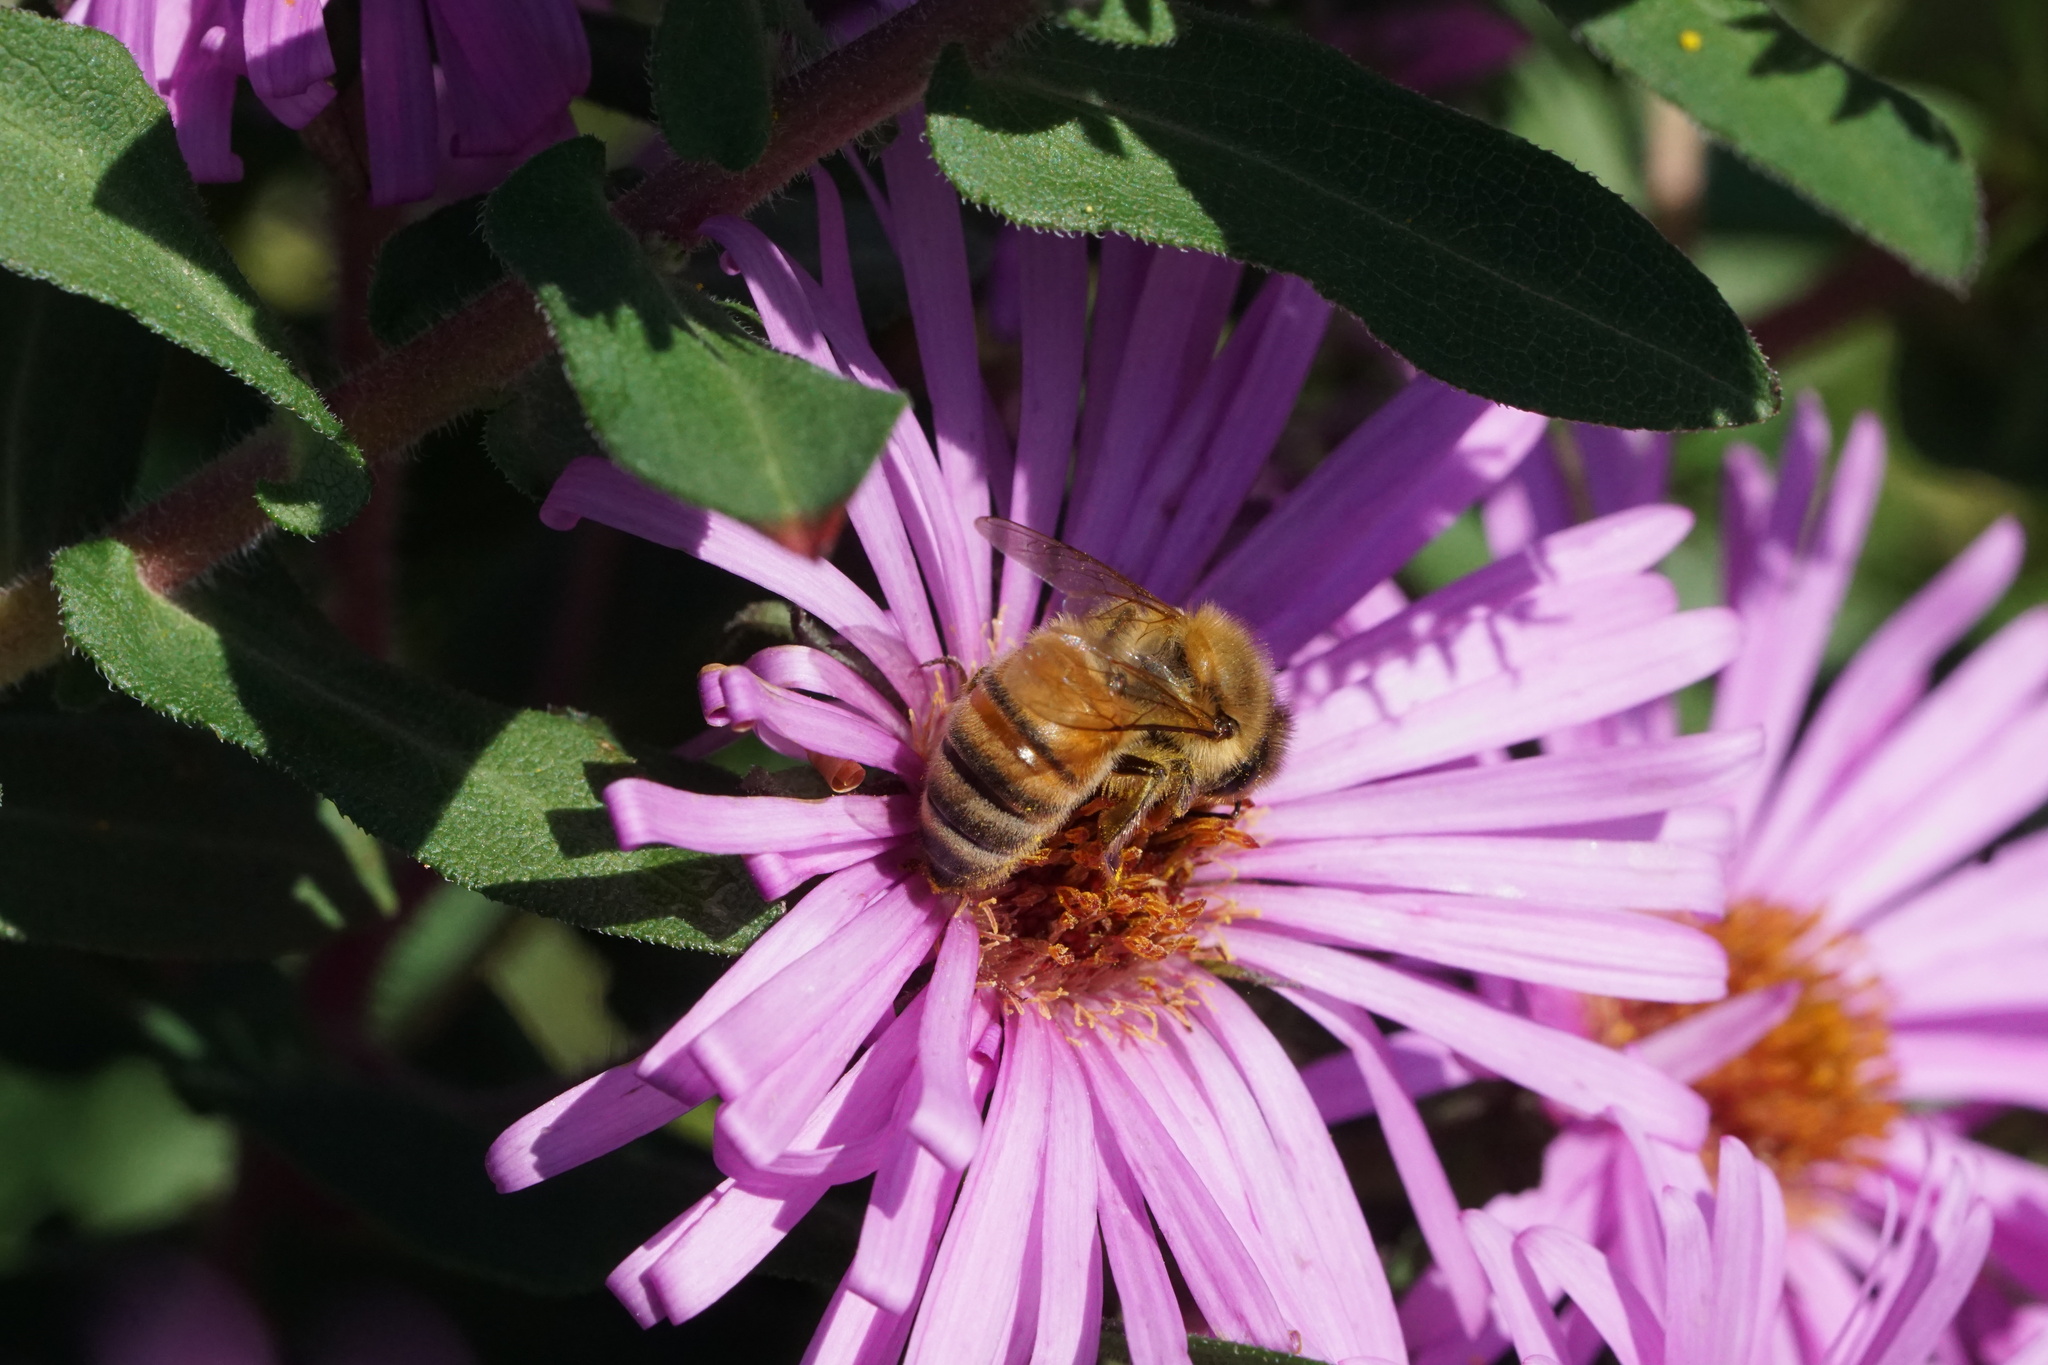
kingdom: Animalia
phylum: Arthropoda
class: Insecta
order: Hymenoptera
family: Apidae
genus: Apis
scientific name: Apis mellifera
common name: Honey bee
